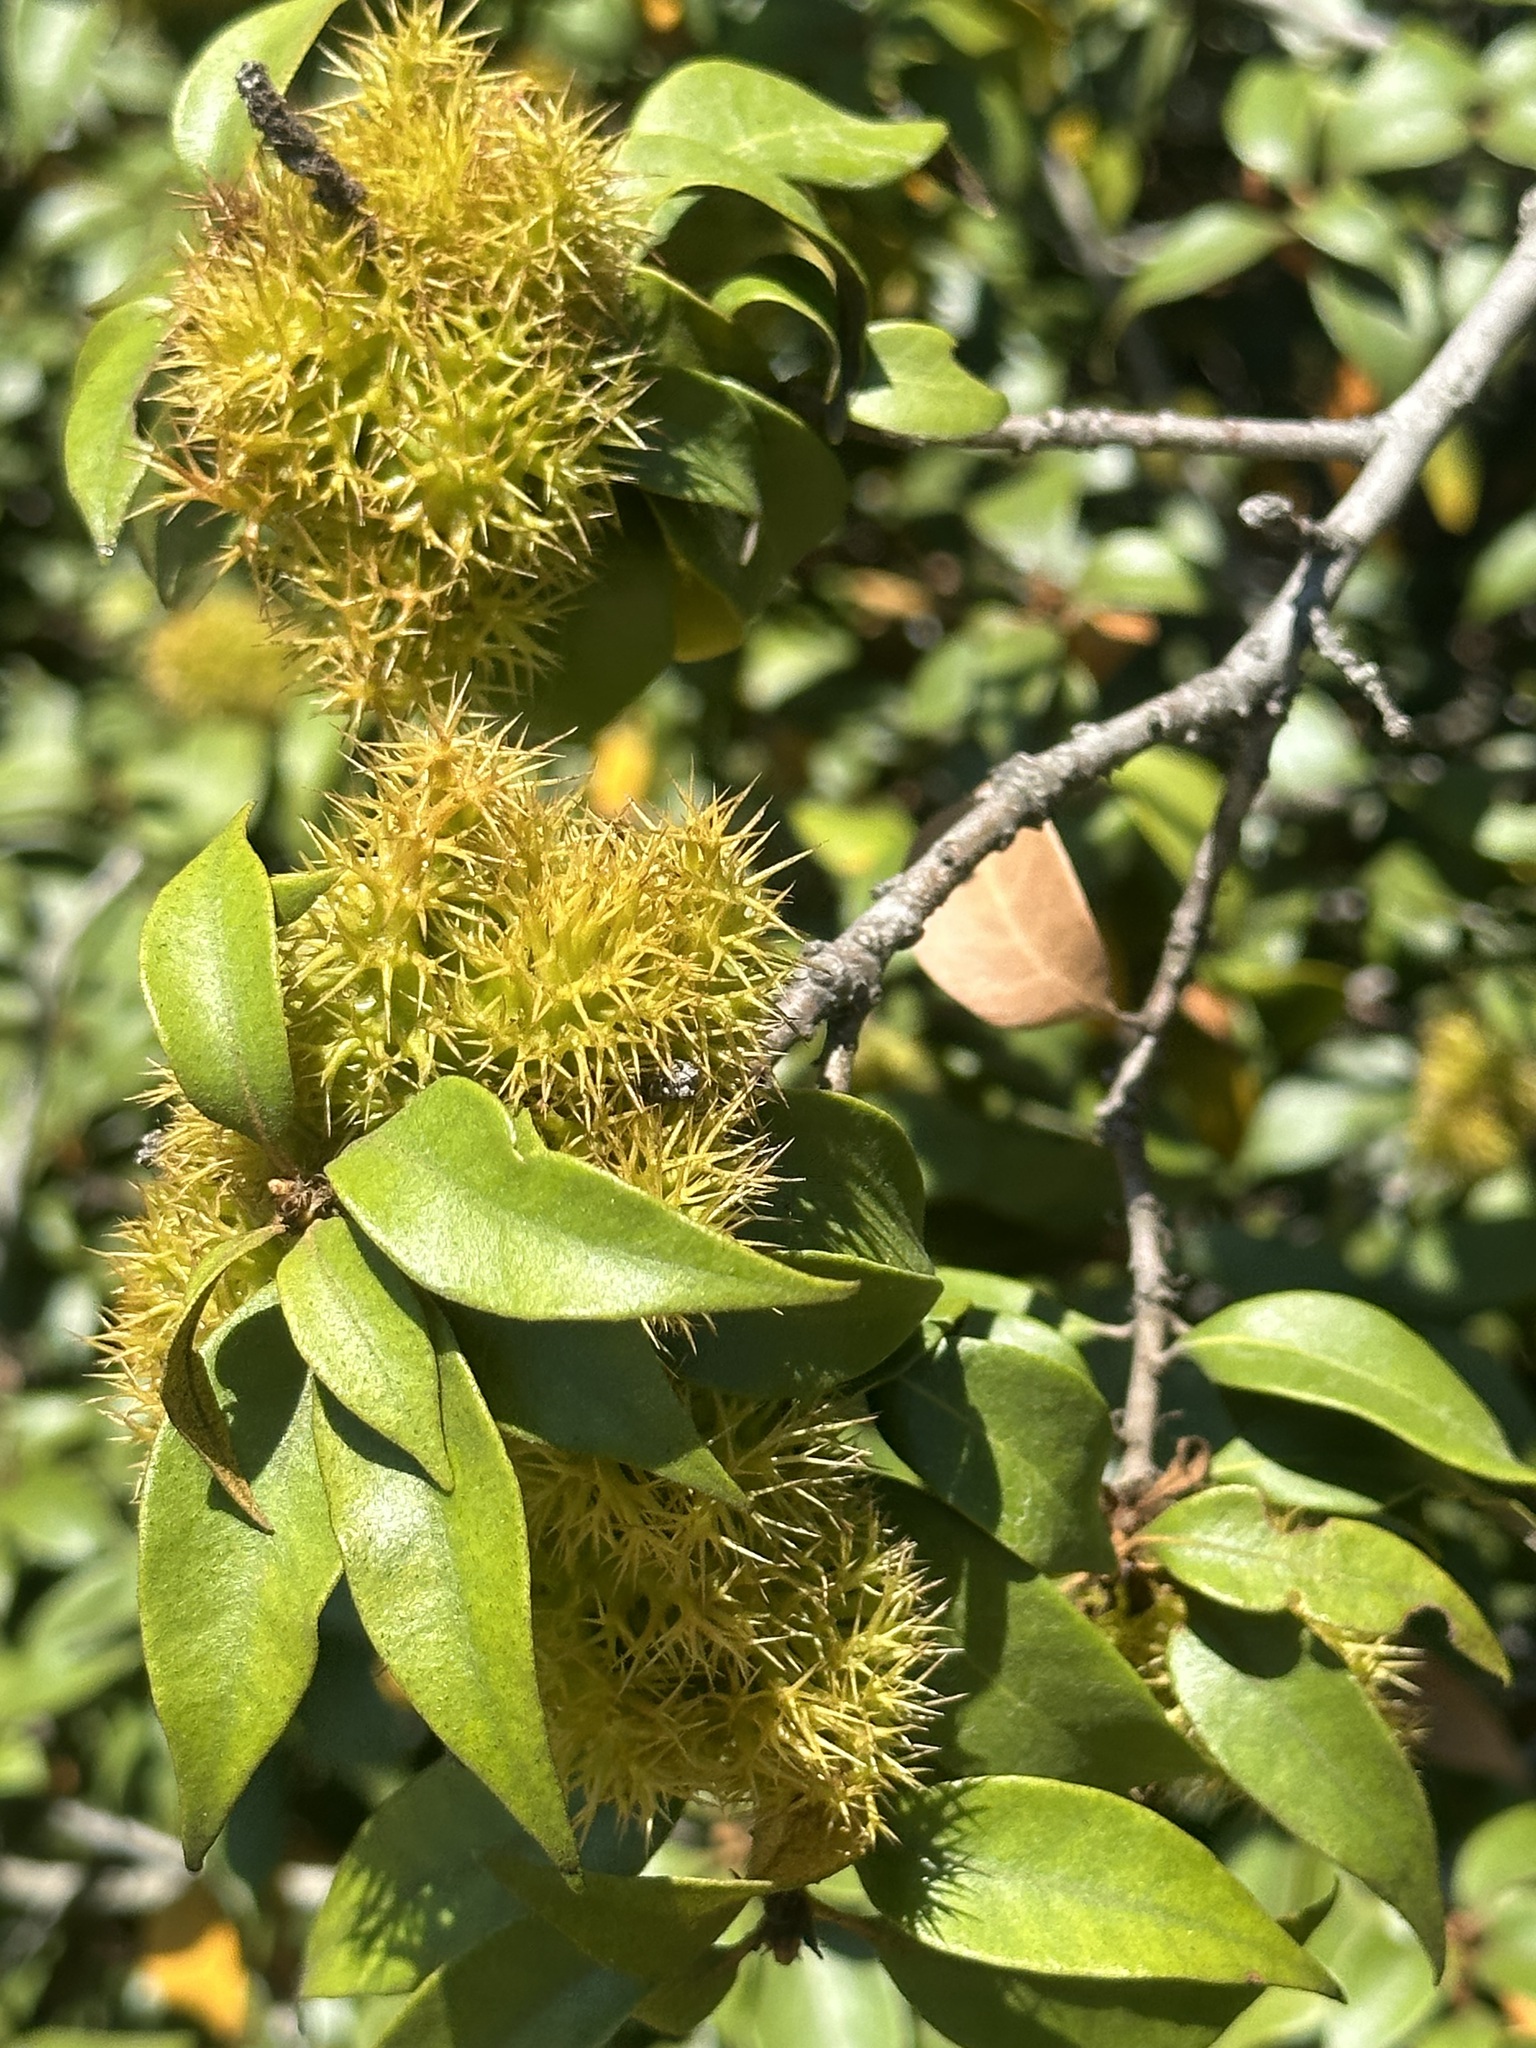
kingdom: Plantae
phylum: Tracheophyta
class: Magnoliopsida
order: Fagales
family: Fagaceae
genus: Chrysolepis
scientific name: Chrysolepis chrysophylla
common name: Giant chinquapin
